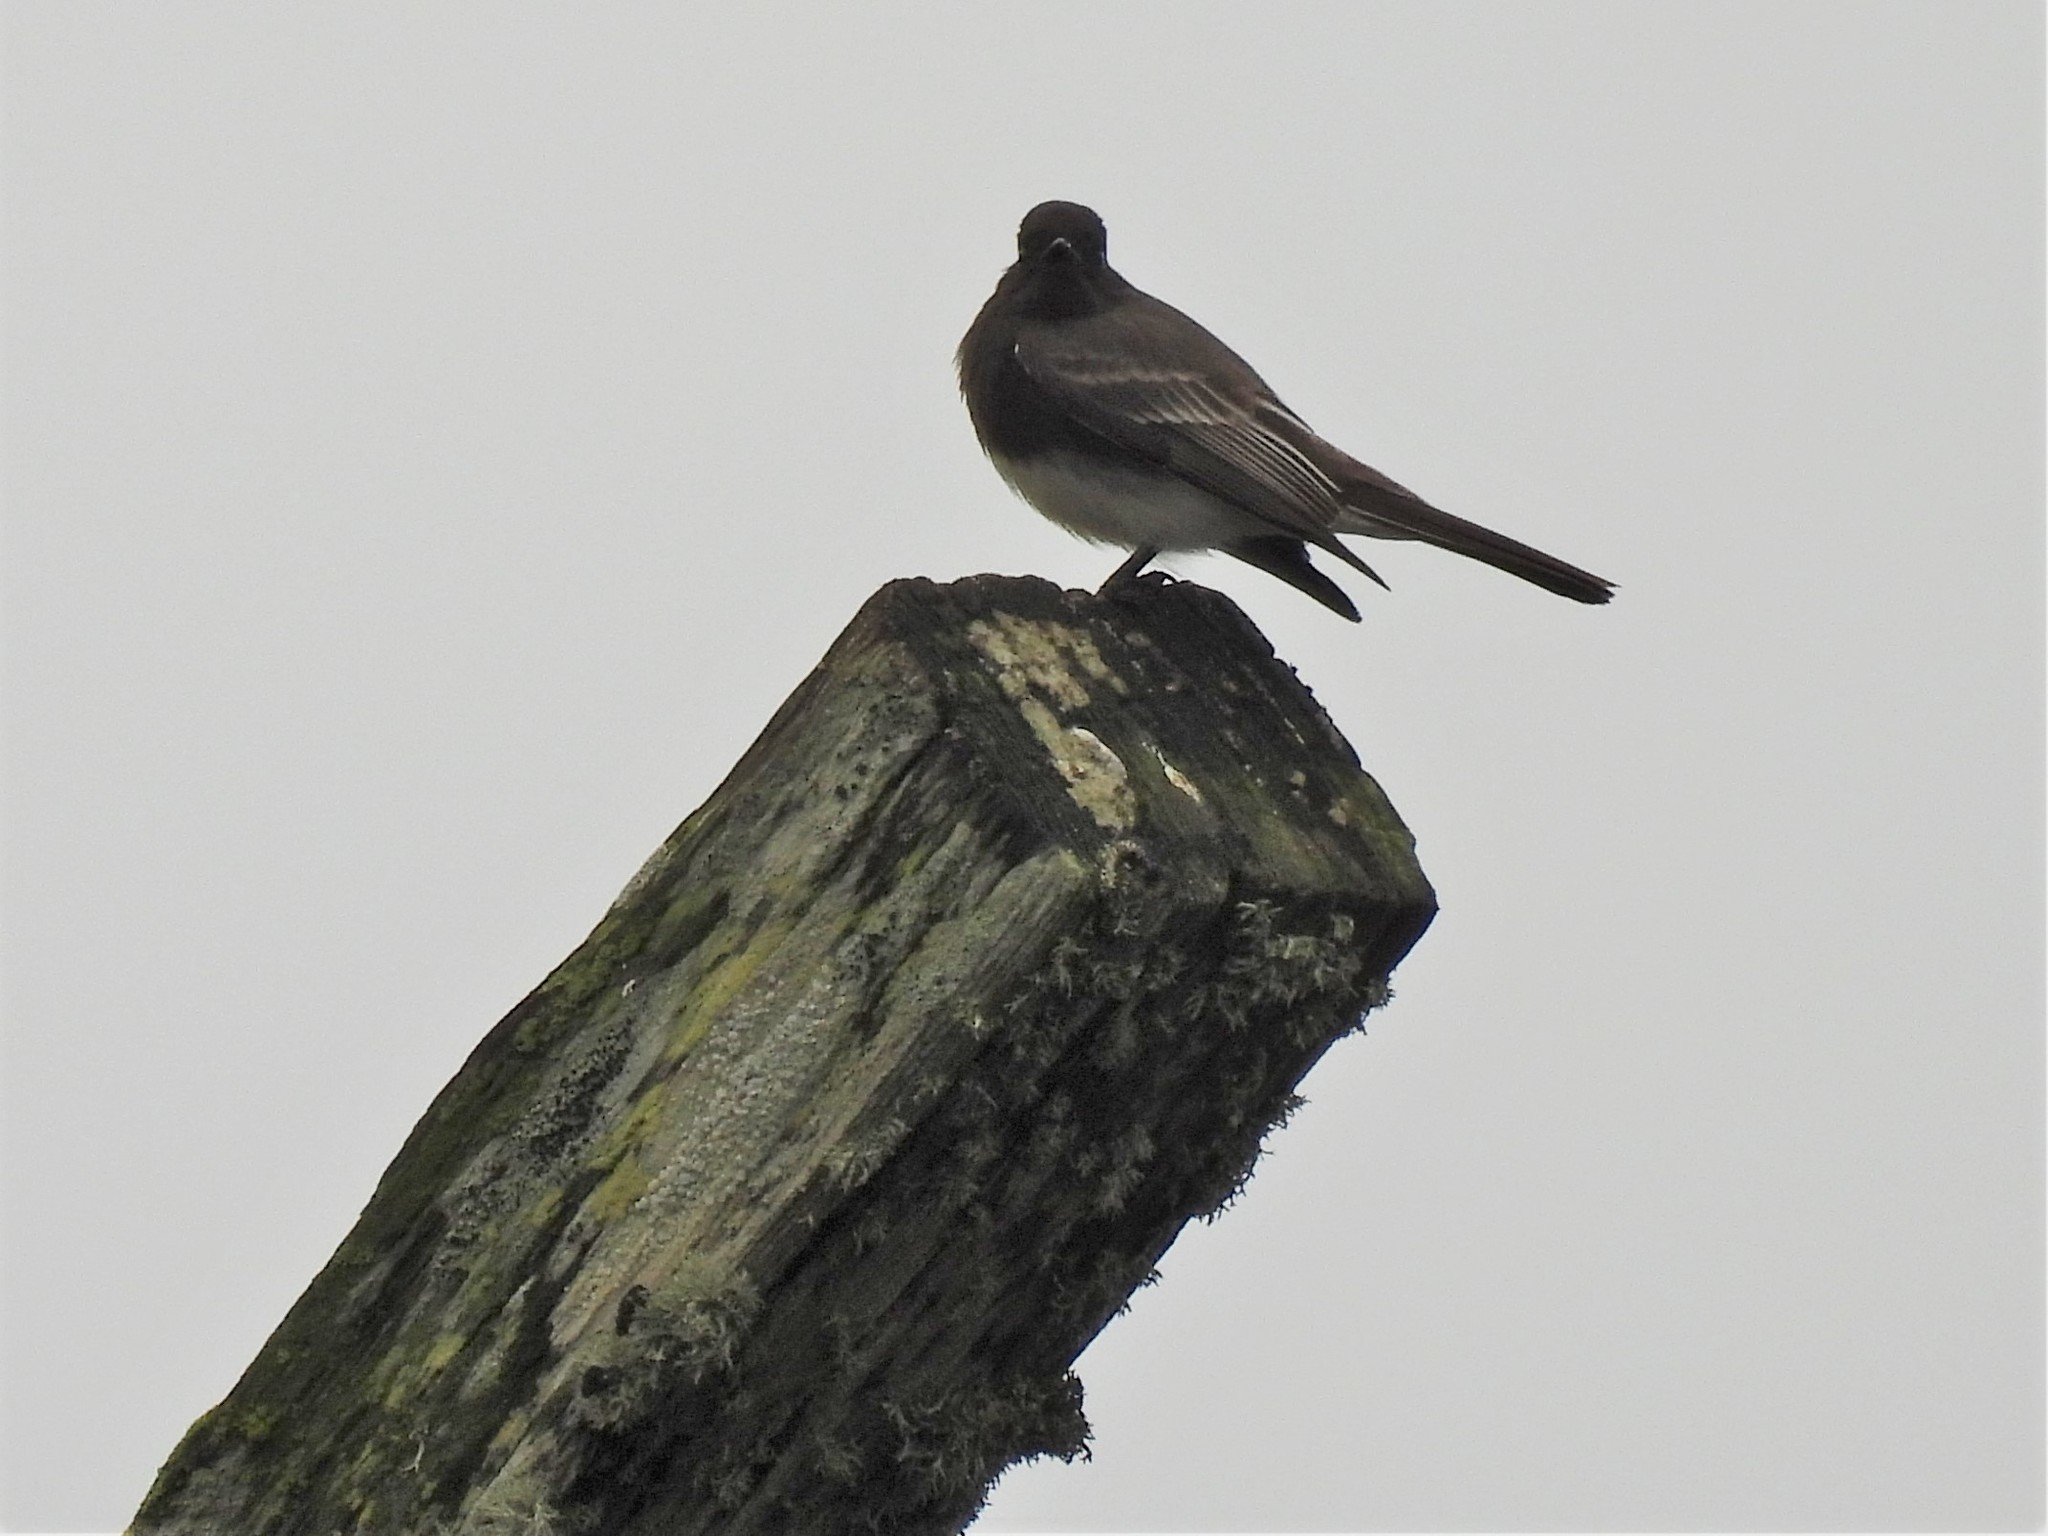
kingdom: Animalia
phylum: Chordata
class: Aves
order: Passeriformes
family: Tyrannidae
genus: Sayornis
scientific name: Sayornis nigricans
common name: Black phoebe
